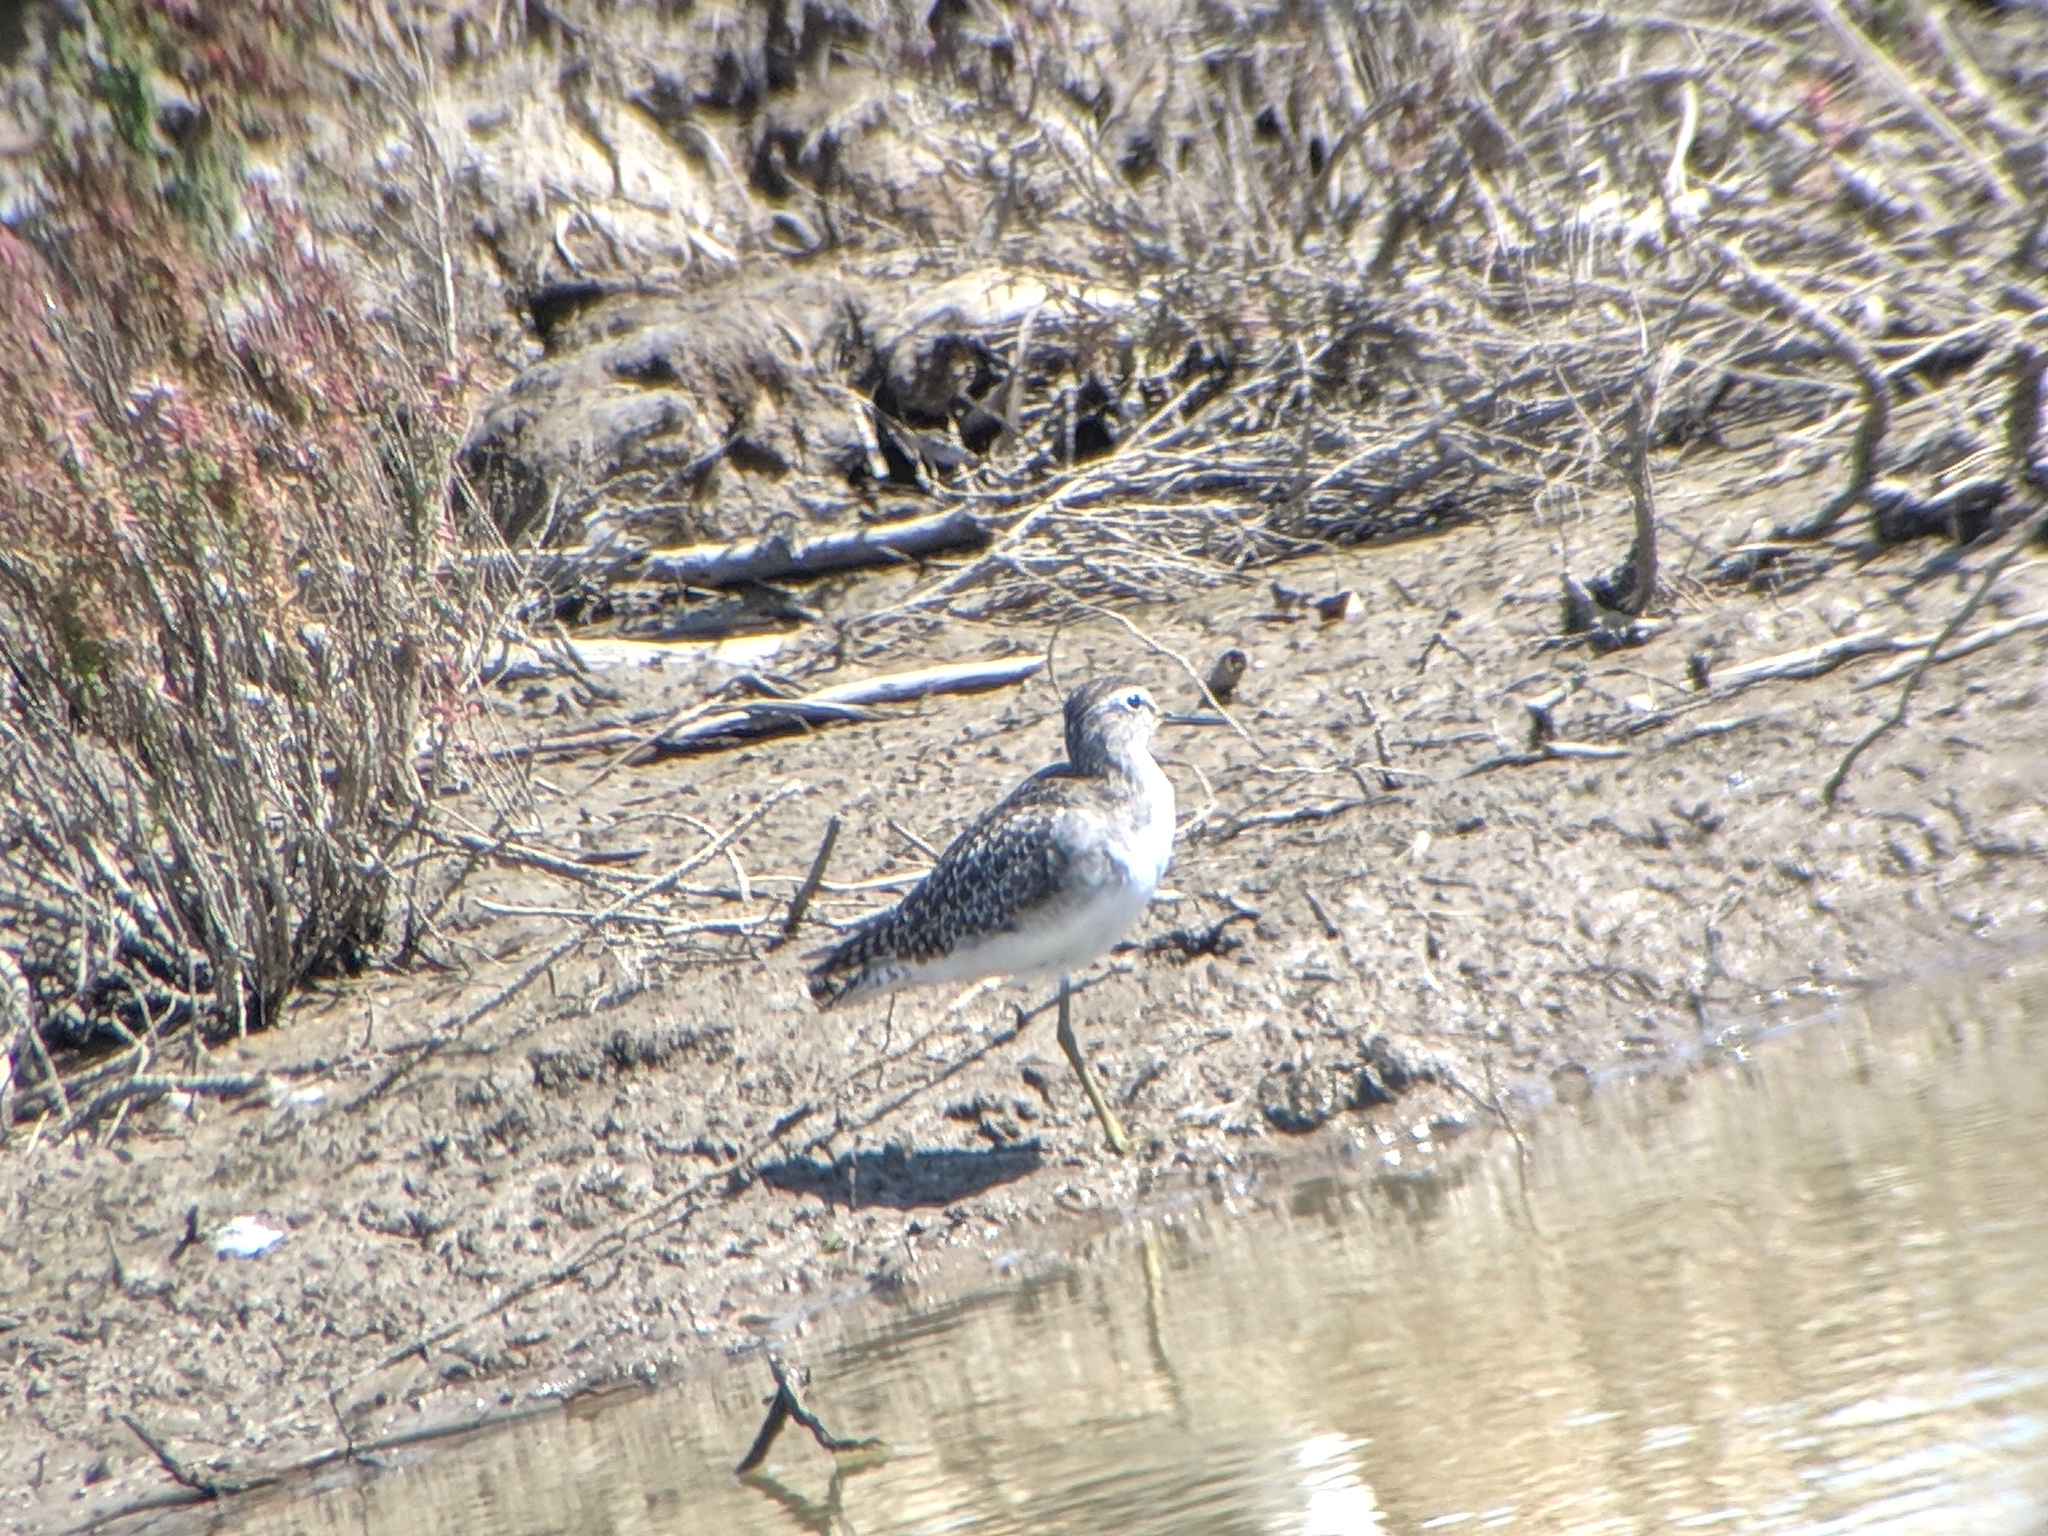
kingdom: Animalia
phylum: Chordata
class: Aves
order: Charadriiformes
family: Scolopacidae
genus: Tringa
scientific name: Tringa glareola
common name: Wood sandpiper
